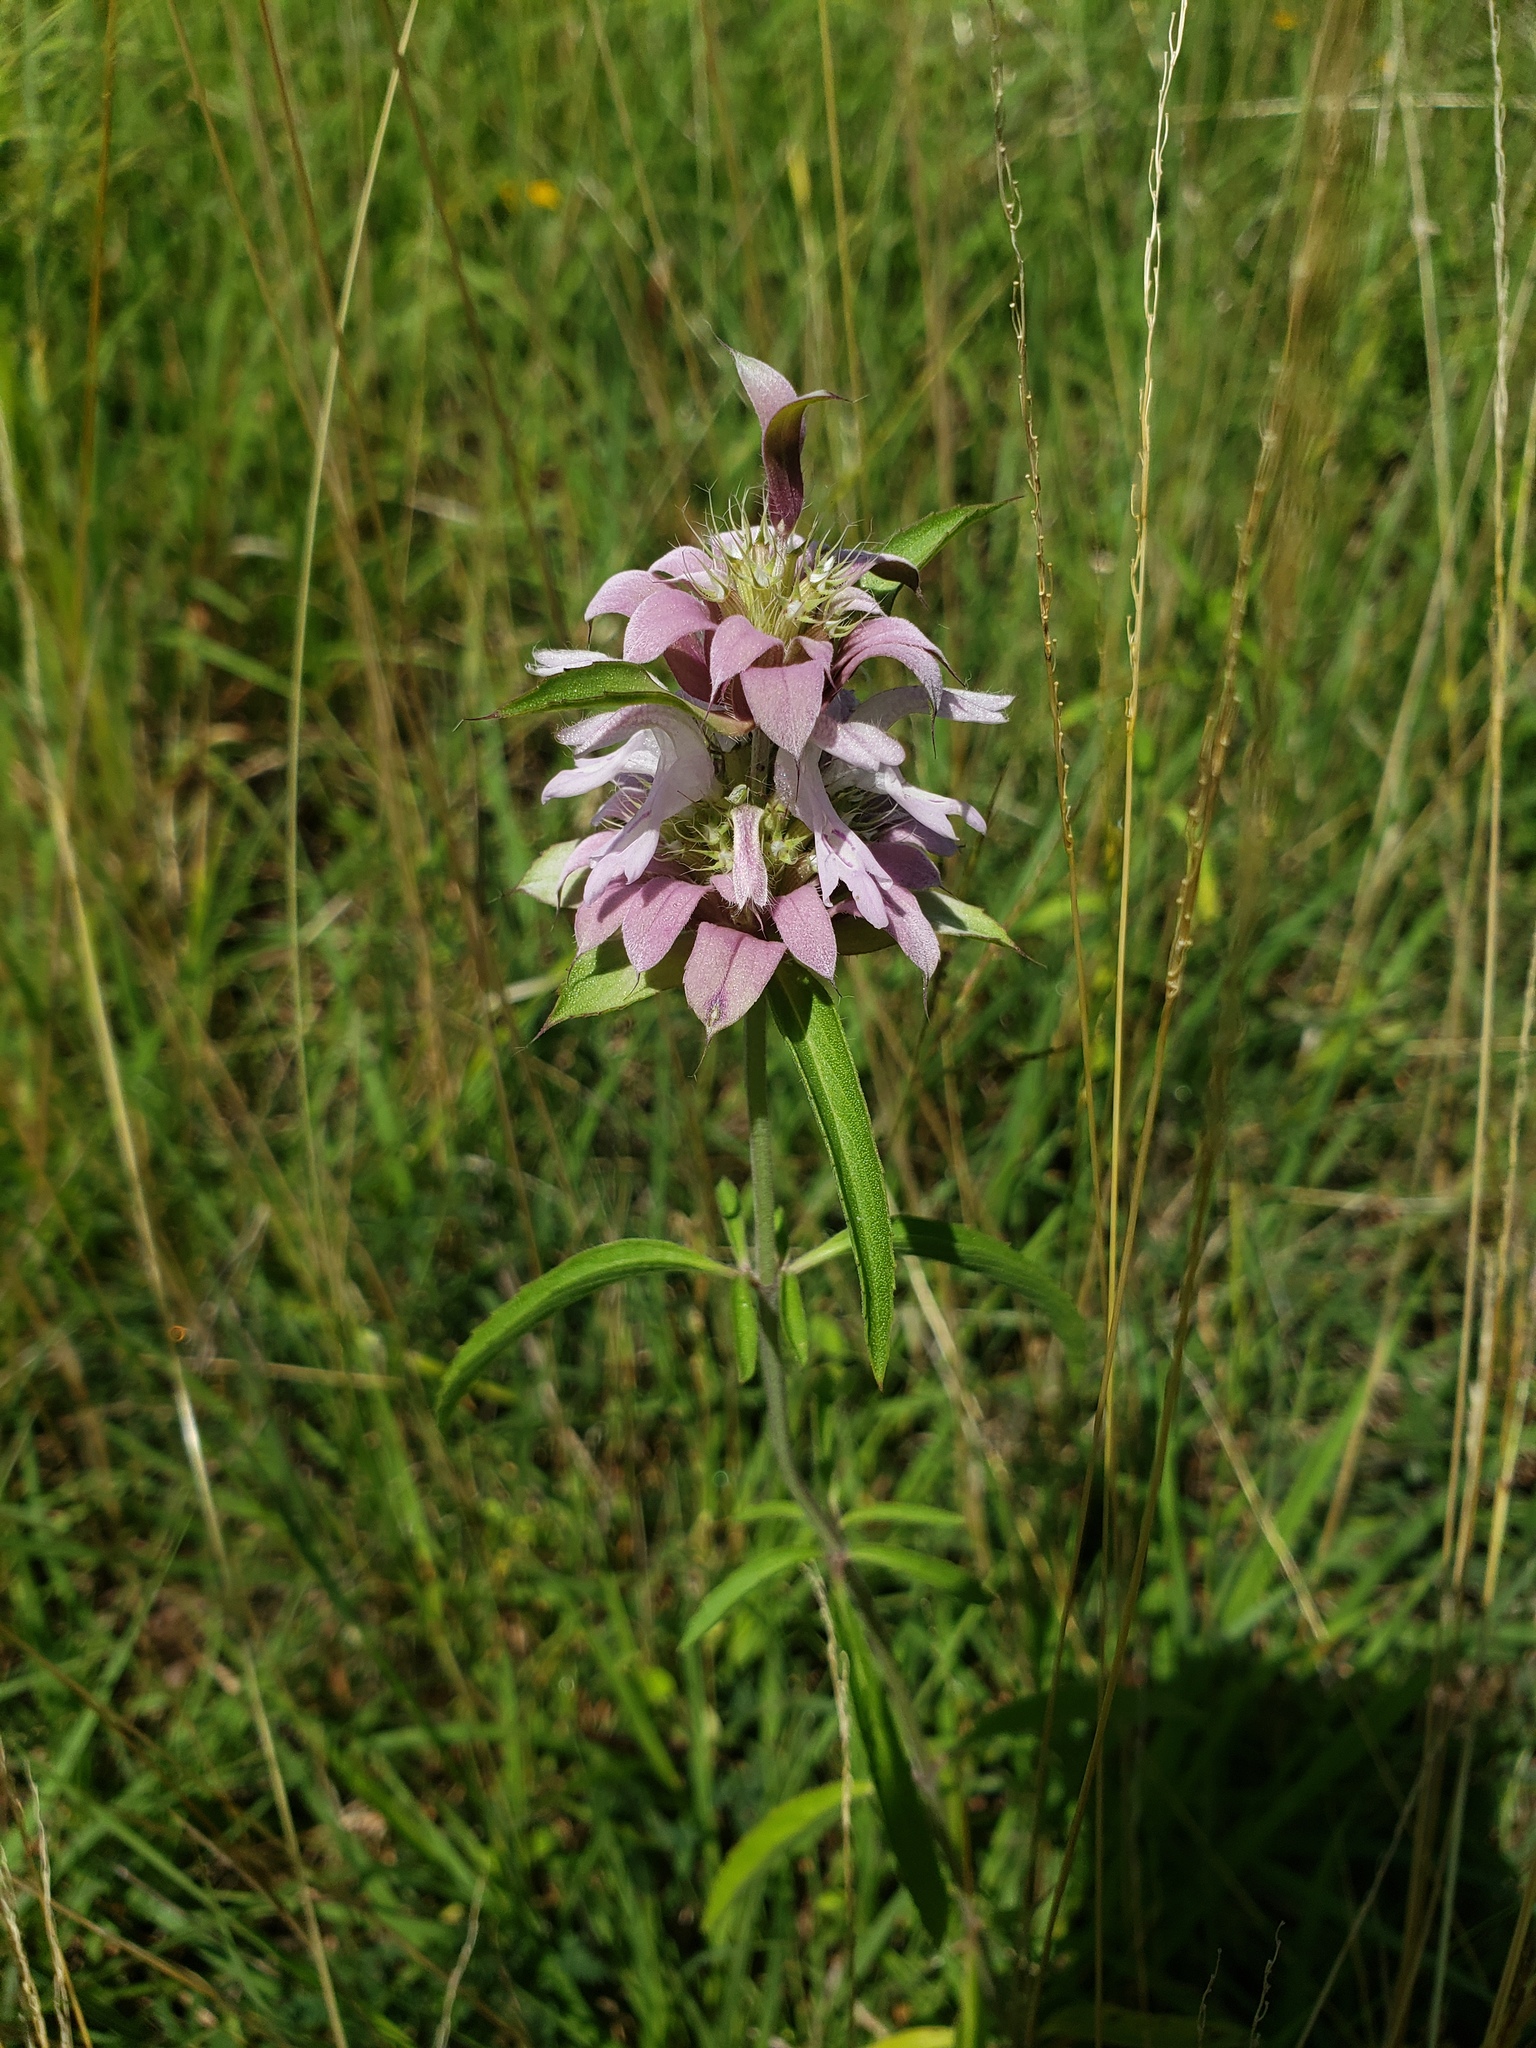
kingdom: Plantae
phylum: Tracheophyta
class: Magnoliopsida
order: Lamiales
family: Lamiaceae
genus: Monarda
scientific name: Monarda citriodora
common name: Lemon beebalm
